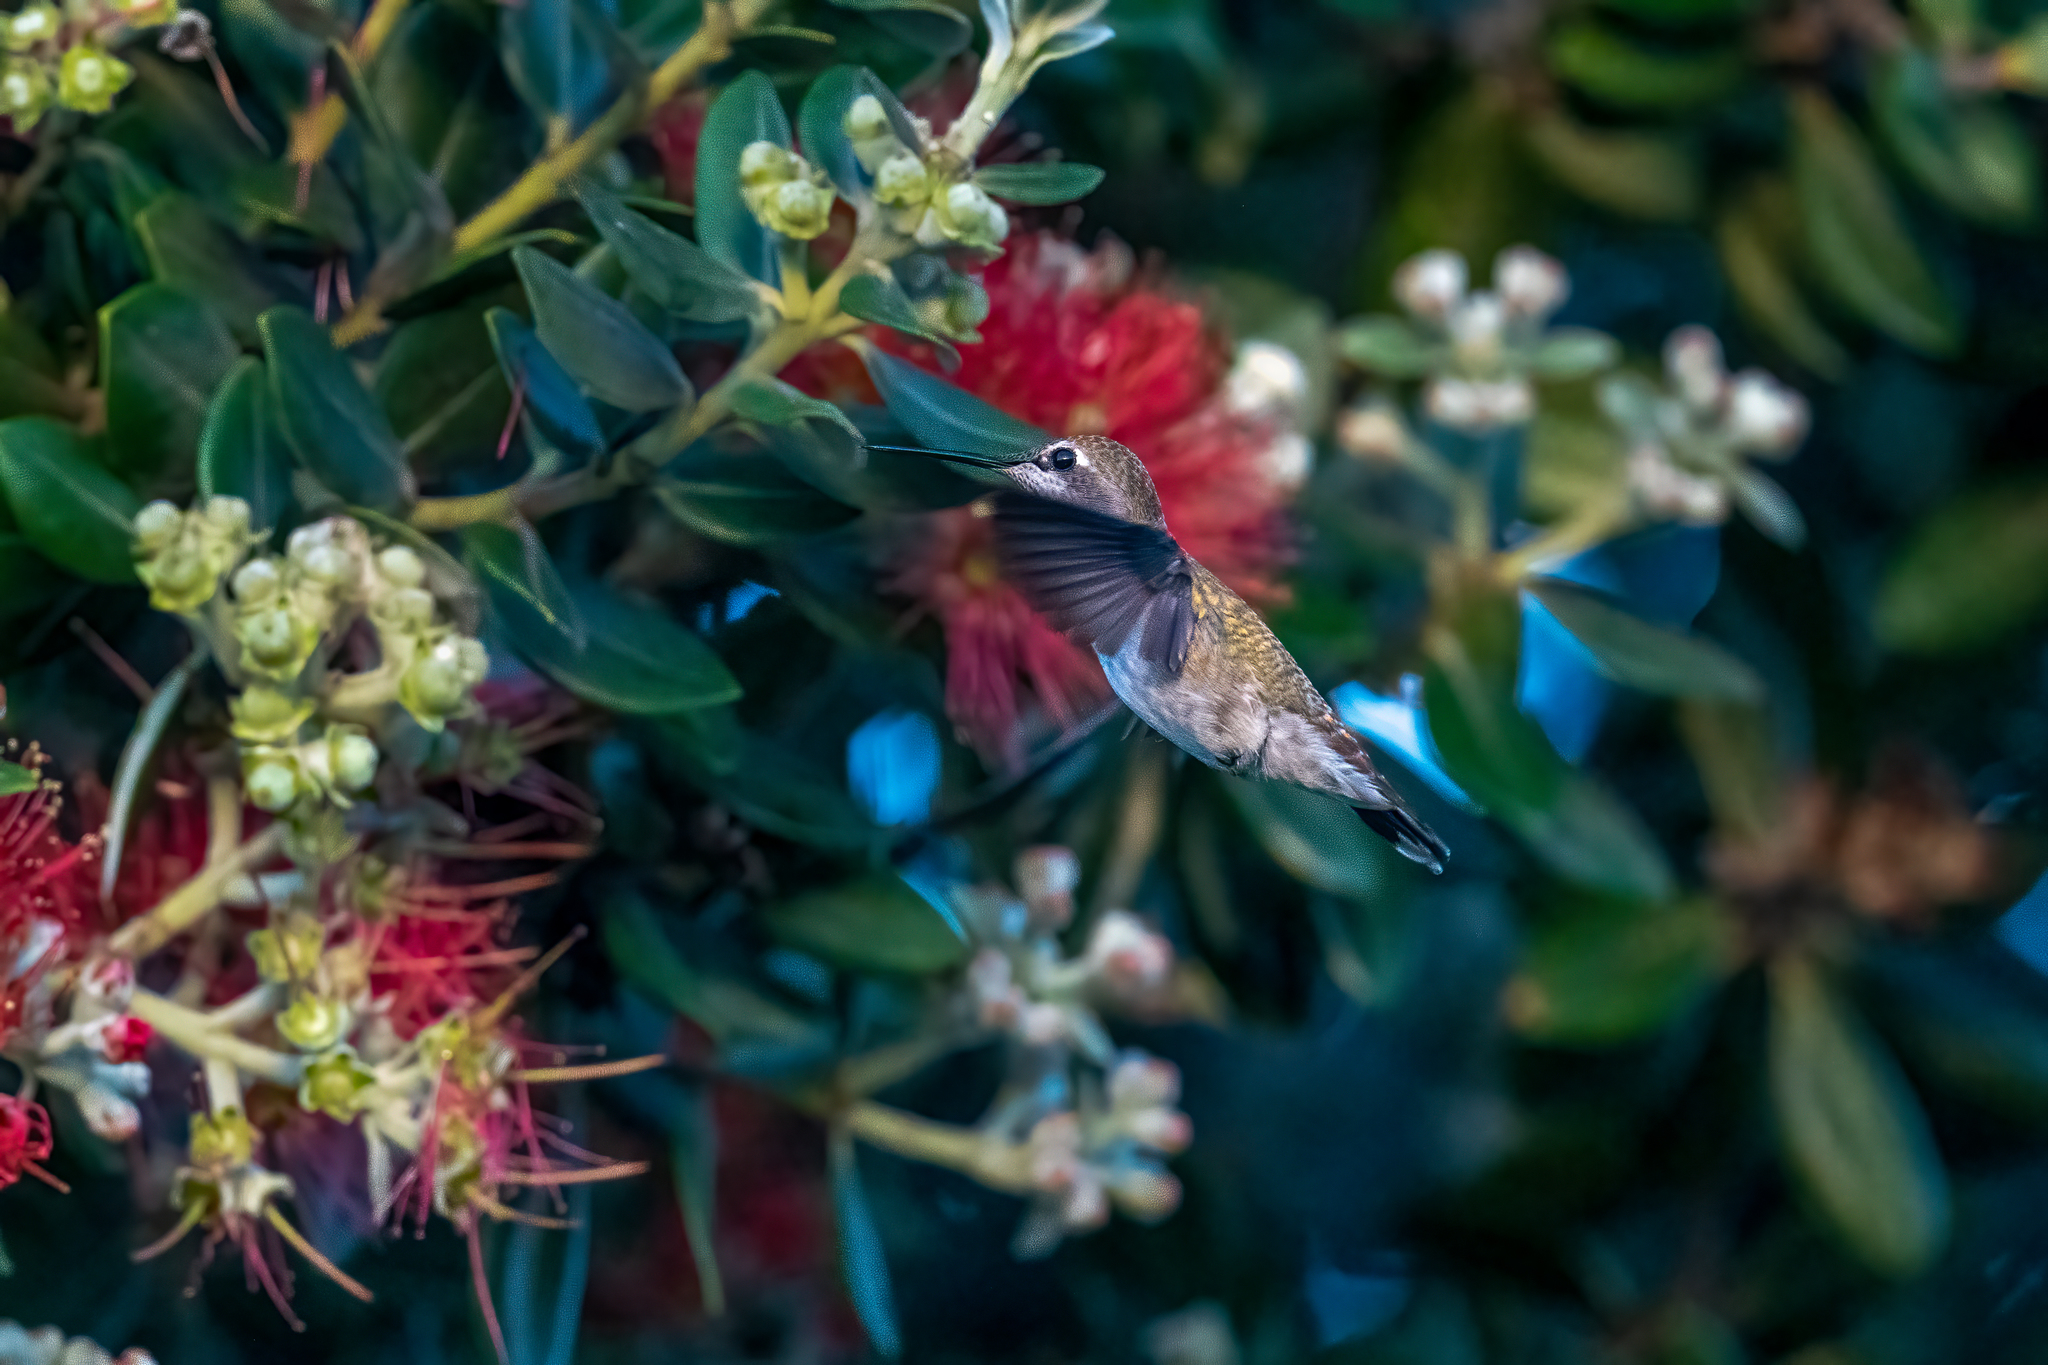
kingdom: Animalia
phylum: Chordata
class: Aves
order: Apodiformes
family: Trochilidae
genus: Calypte
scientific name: Calypte anna
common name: Anna's hummingbird
